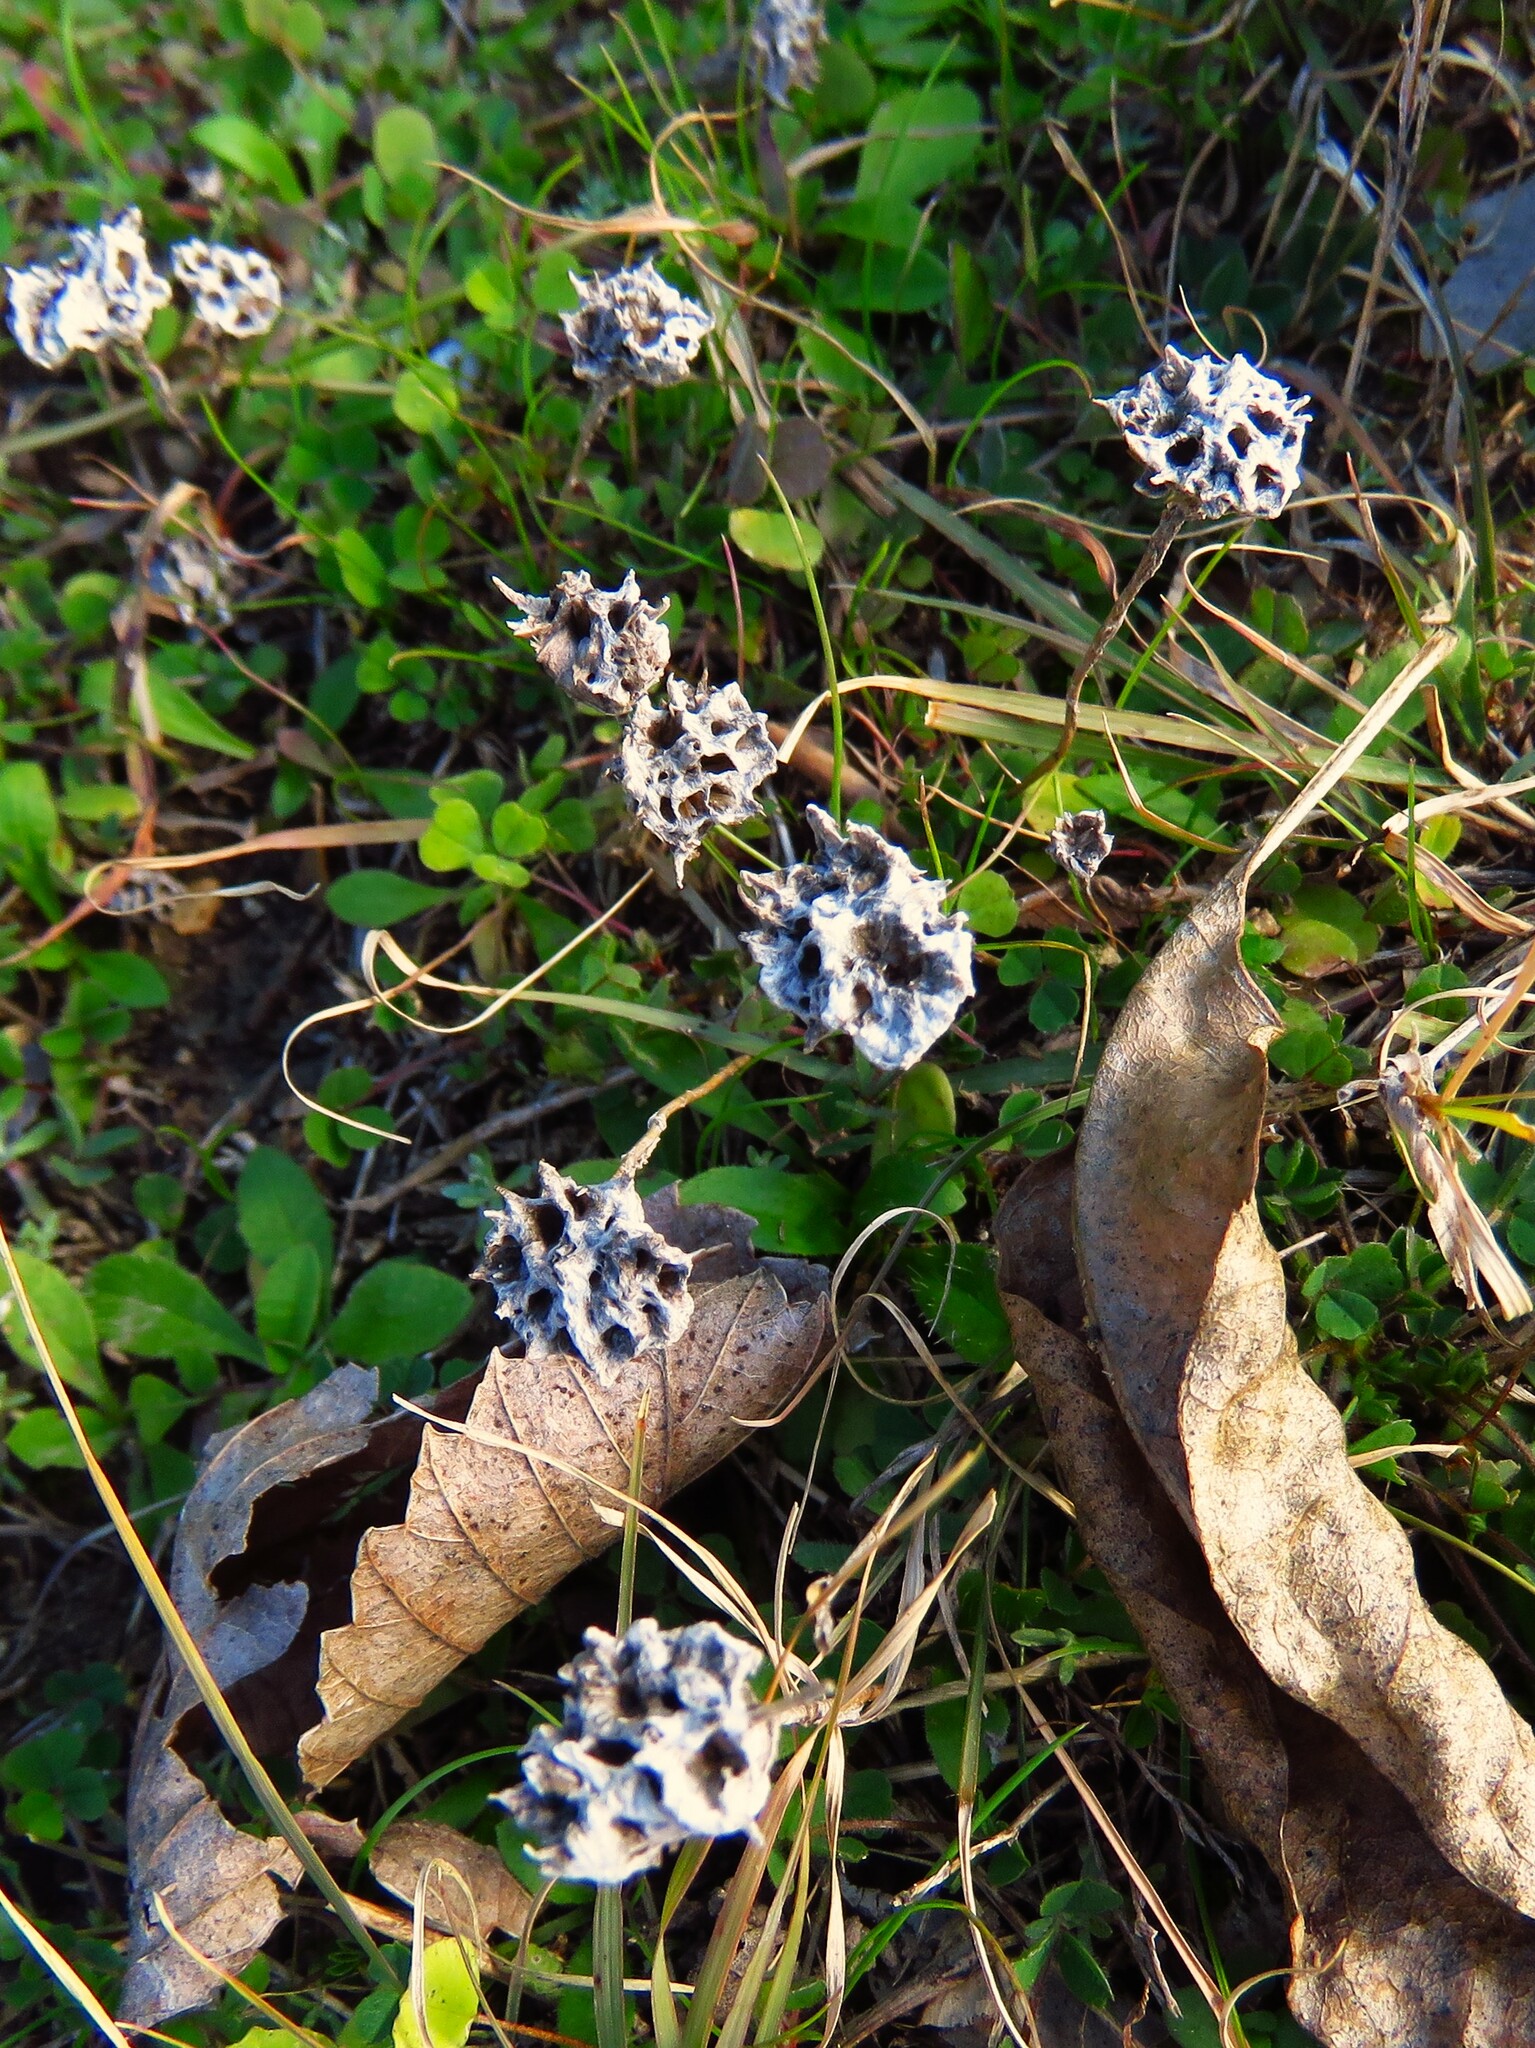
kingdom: Plantae
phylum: Tracheophyta
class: Magnoliopsida
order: Asterales
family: Asteraceae
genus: Diaperia
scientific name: Diaperia prolifera
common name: Big-head rabbit-tobacco
